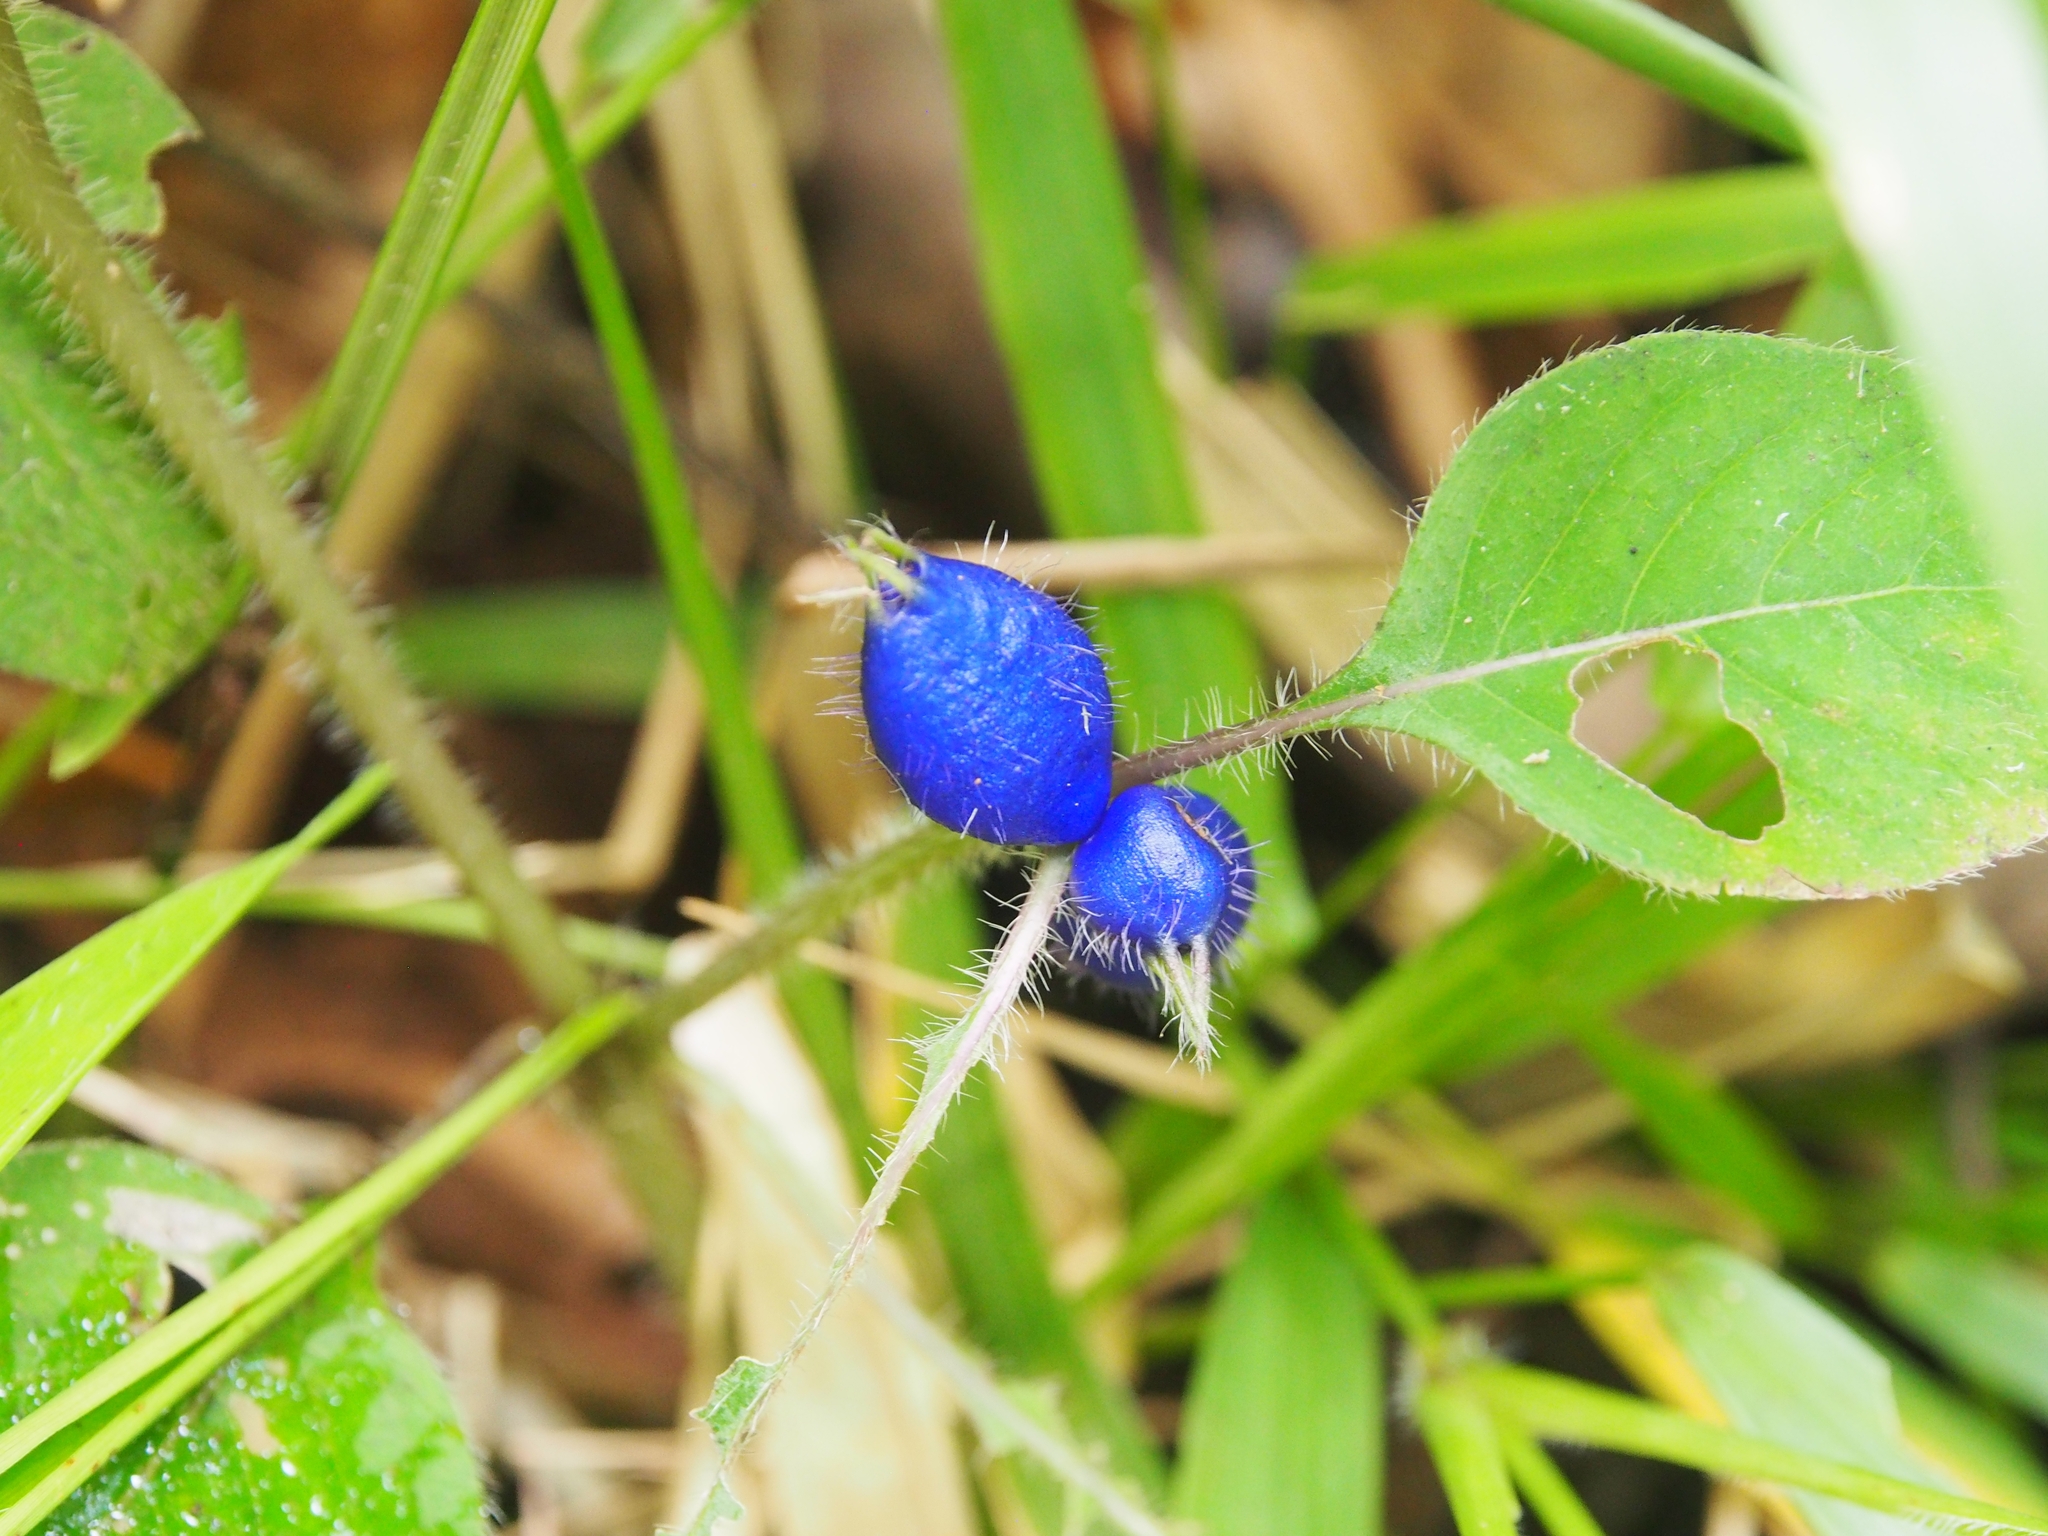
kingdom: Plantae
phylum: Tracheophyta
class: Magnoliopsida
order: Gentianales
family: Rubiaceae
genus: Coccocypselum
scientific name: Coccocypselum hispidulum
